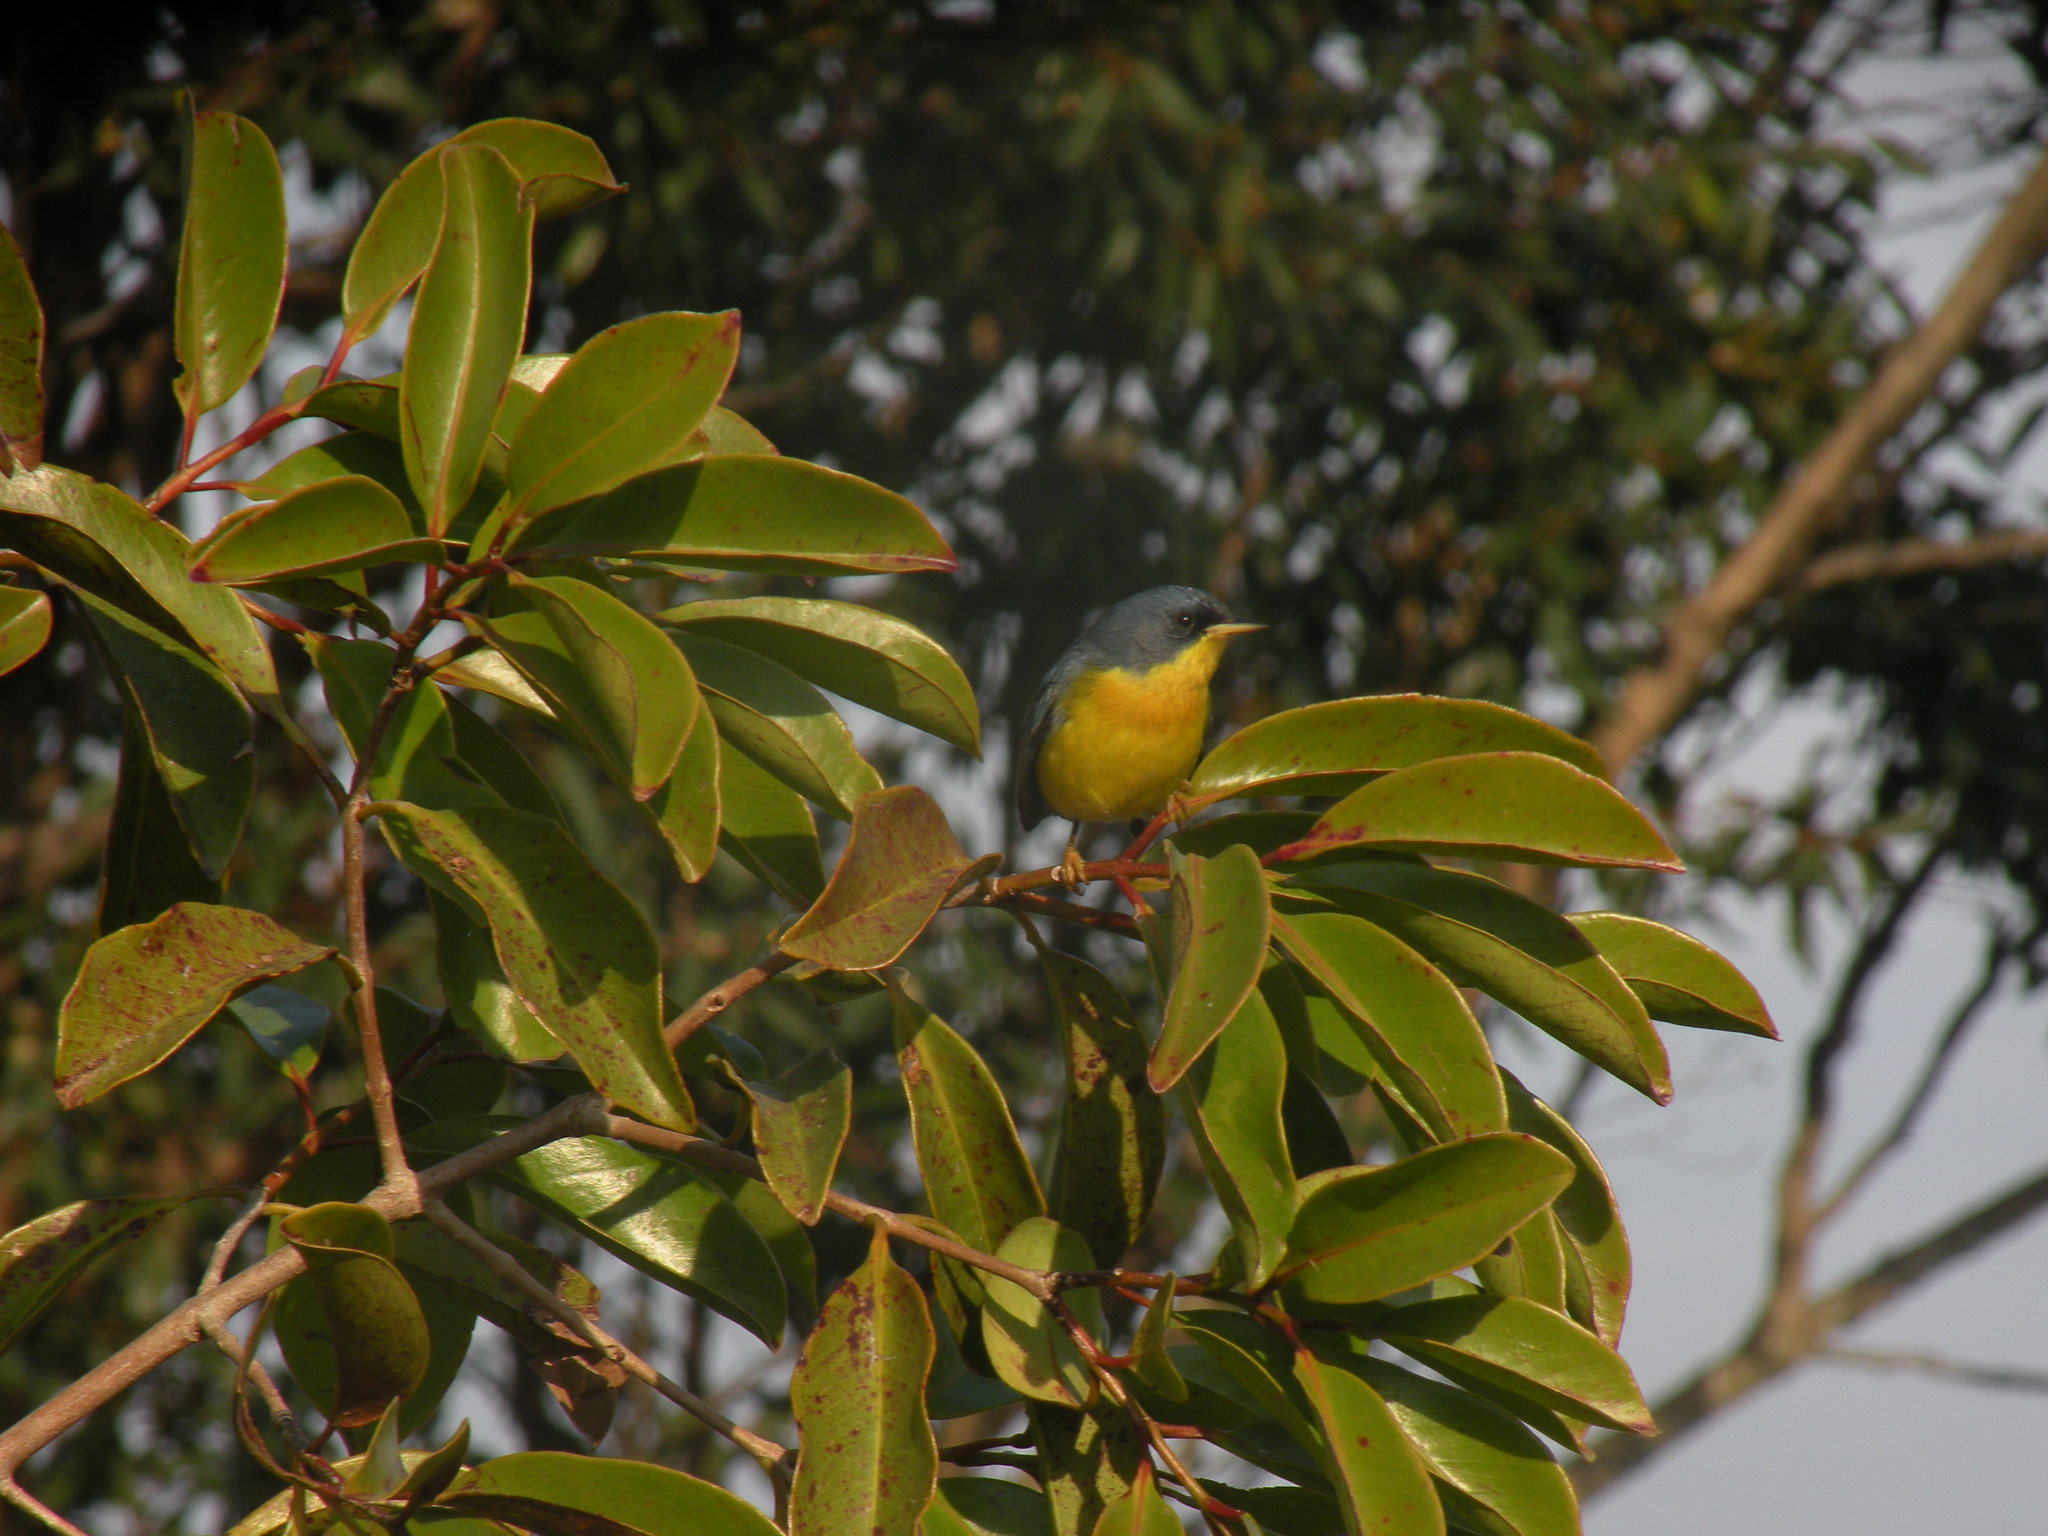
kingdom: Animalia
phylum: Chordata
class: Aves
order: Passeriformes
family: Parulidae
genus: Setophaga
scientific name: Setophaga pitiayumi
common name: Tropical parula
